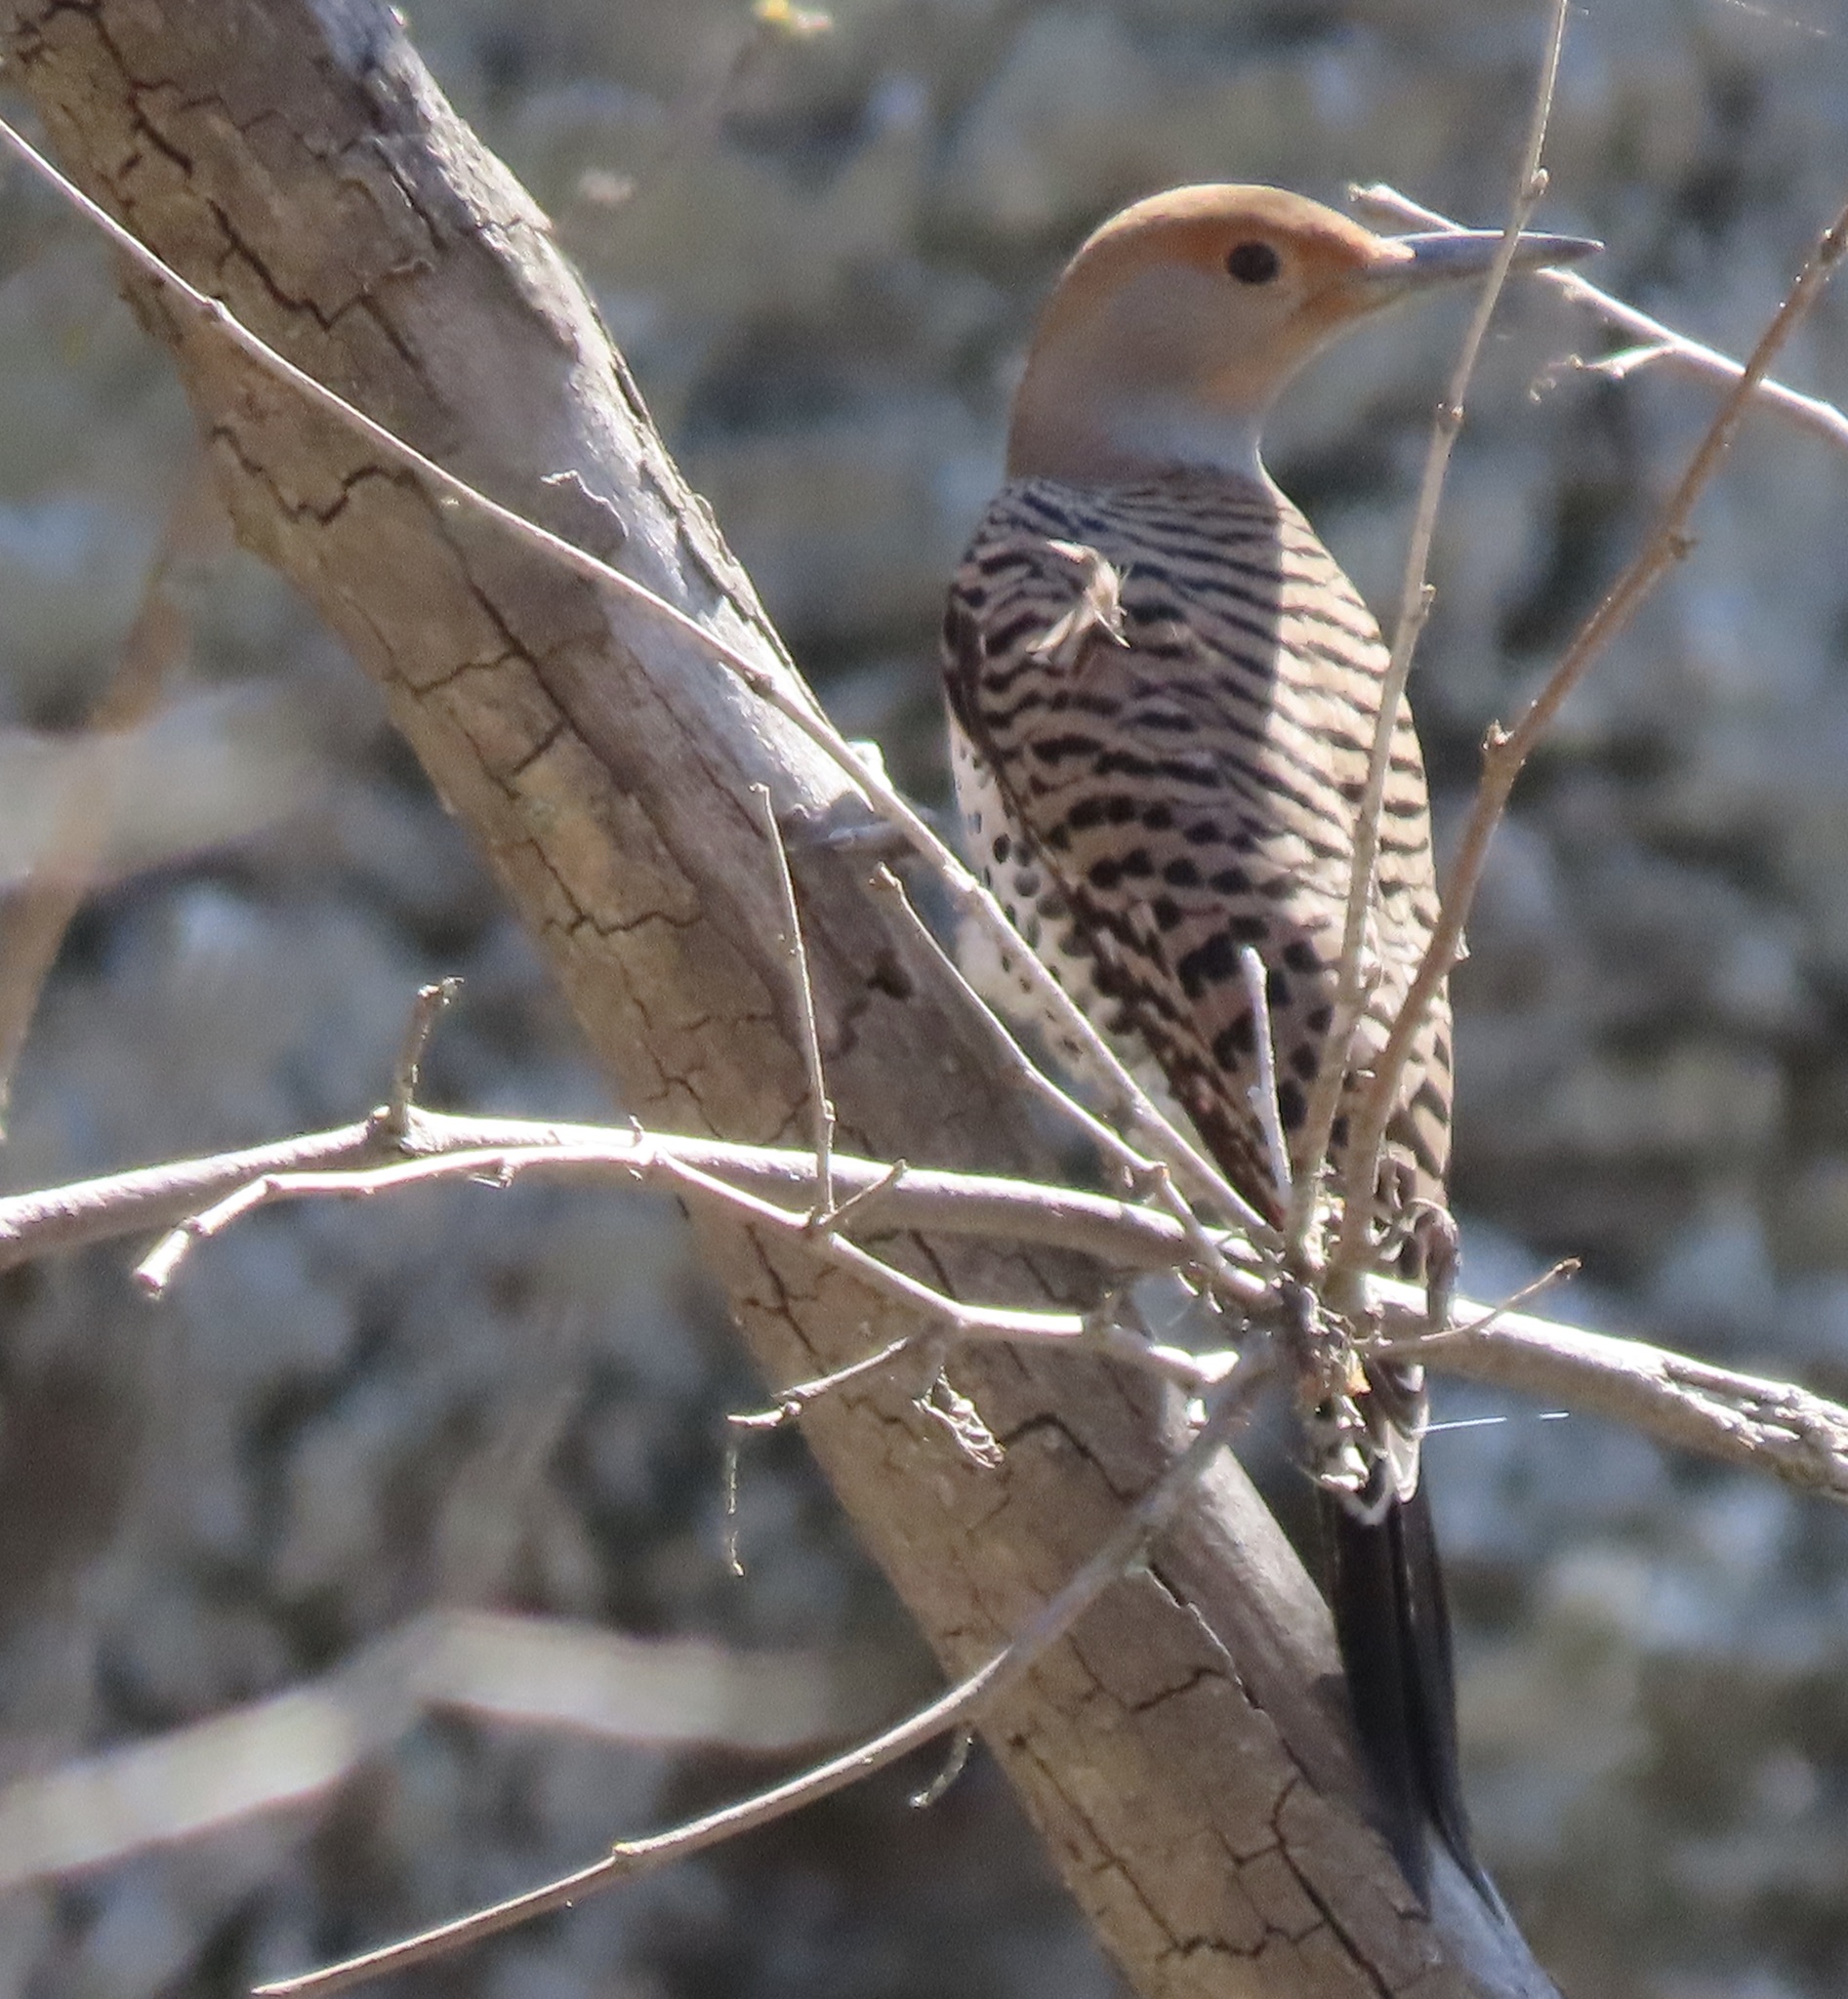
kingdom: Animalia
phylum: Chordata
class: Aves
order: Piciformes
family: Picidae
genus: Colaptes
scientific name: Colaptes auratus
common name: Northern flicker
